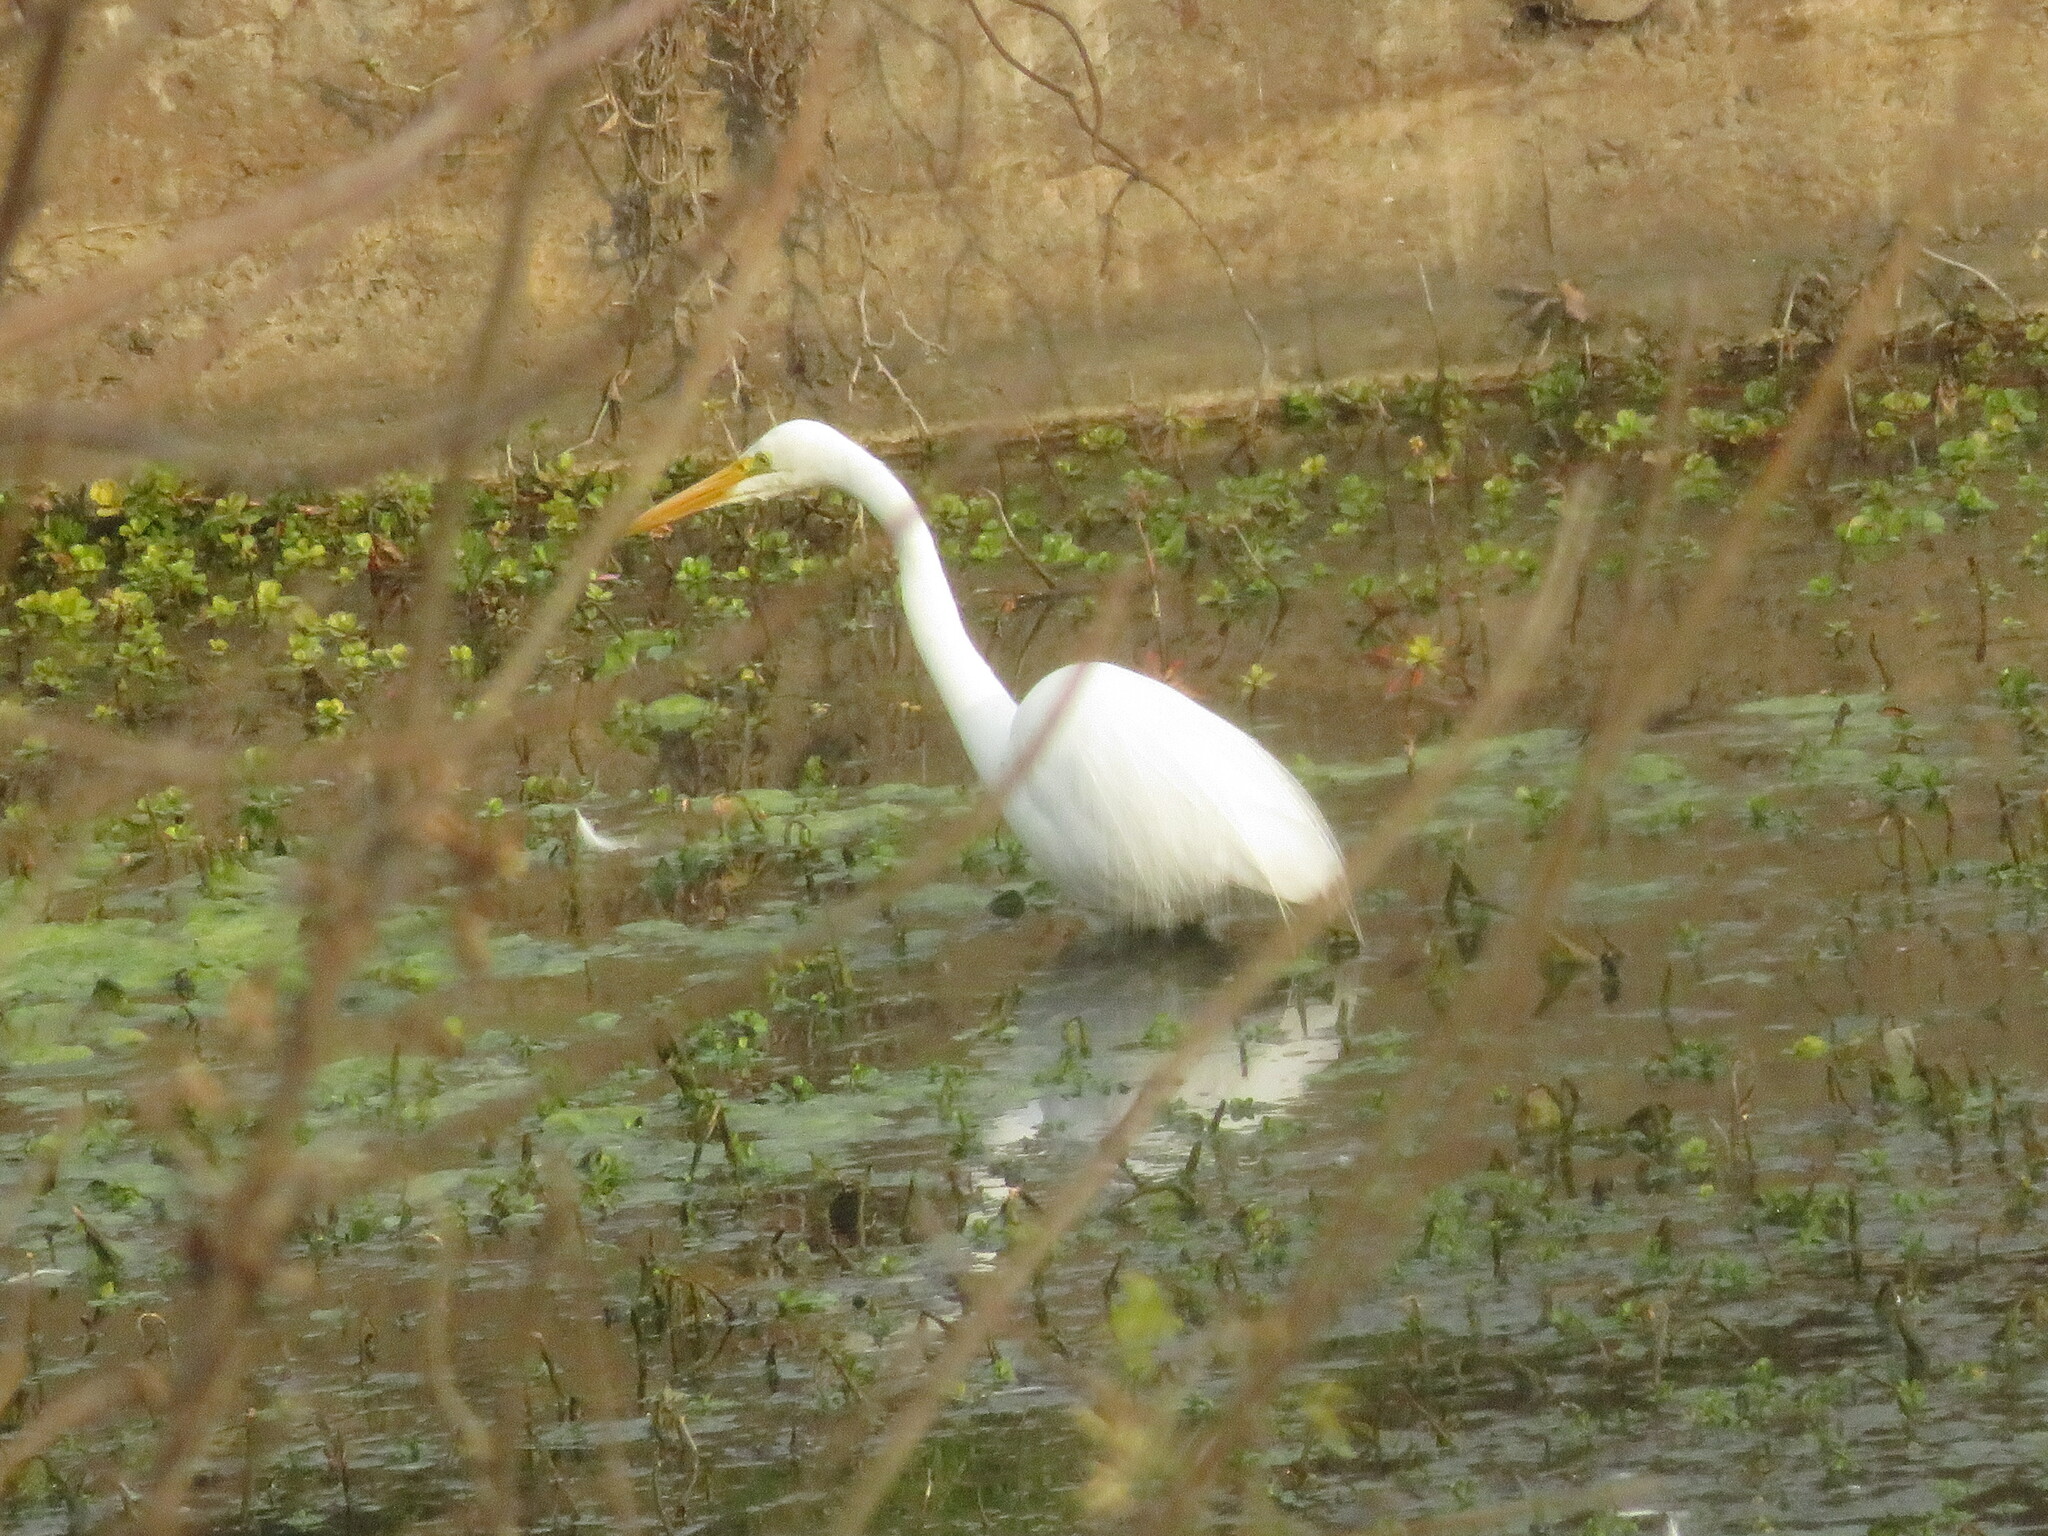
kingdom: Animalia
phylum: Chordata
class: Aves
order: Pelecaniformes
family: Ardeidae
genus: Ardea
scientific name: Ardea alba
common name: Great egret
